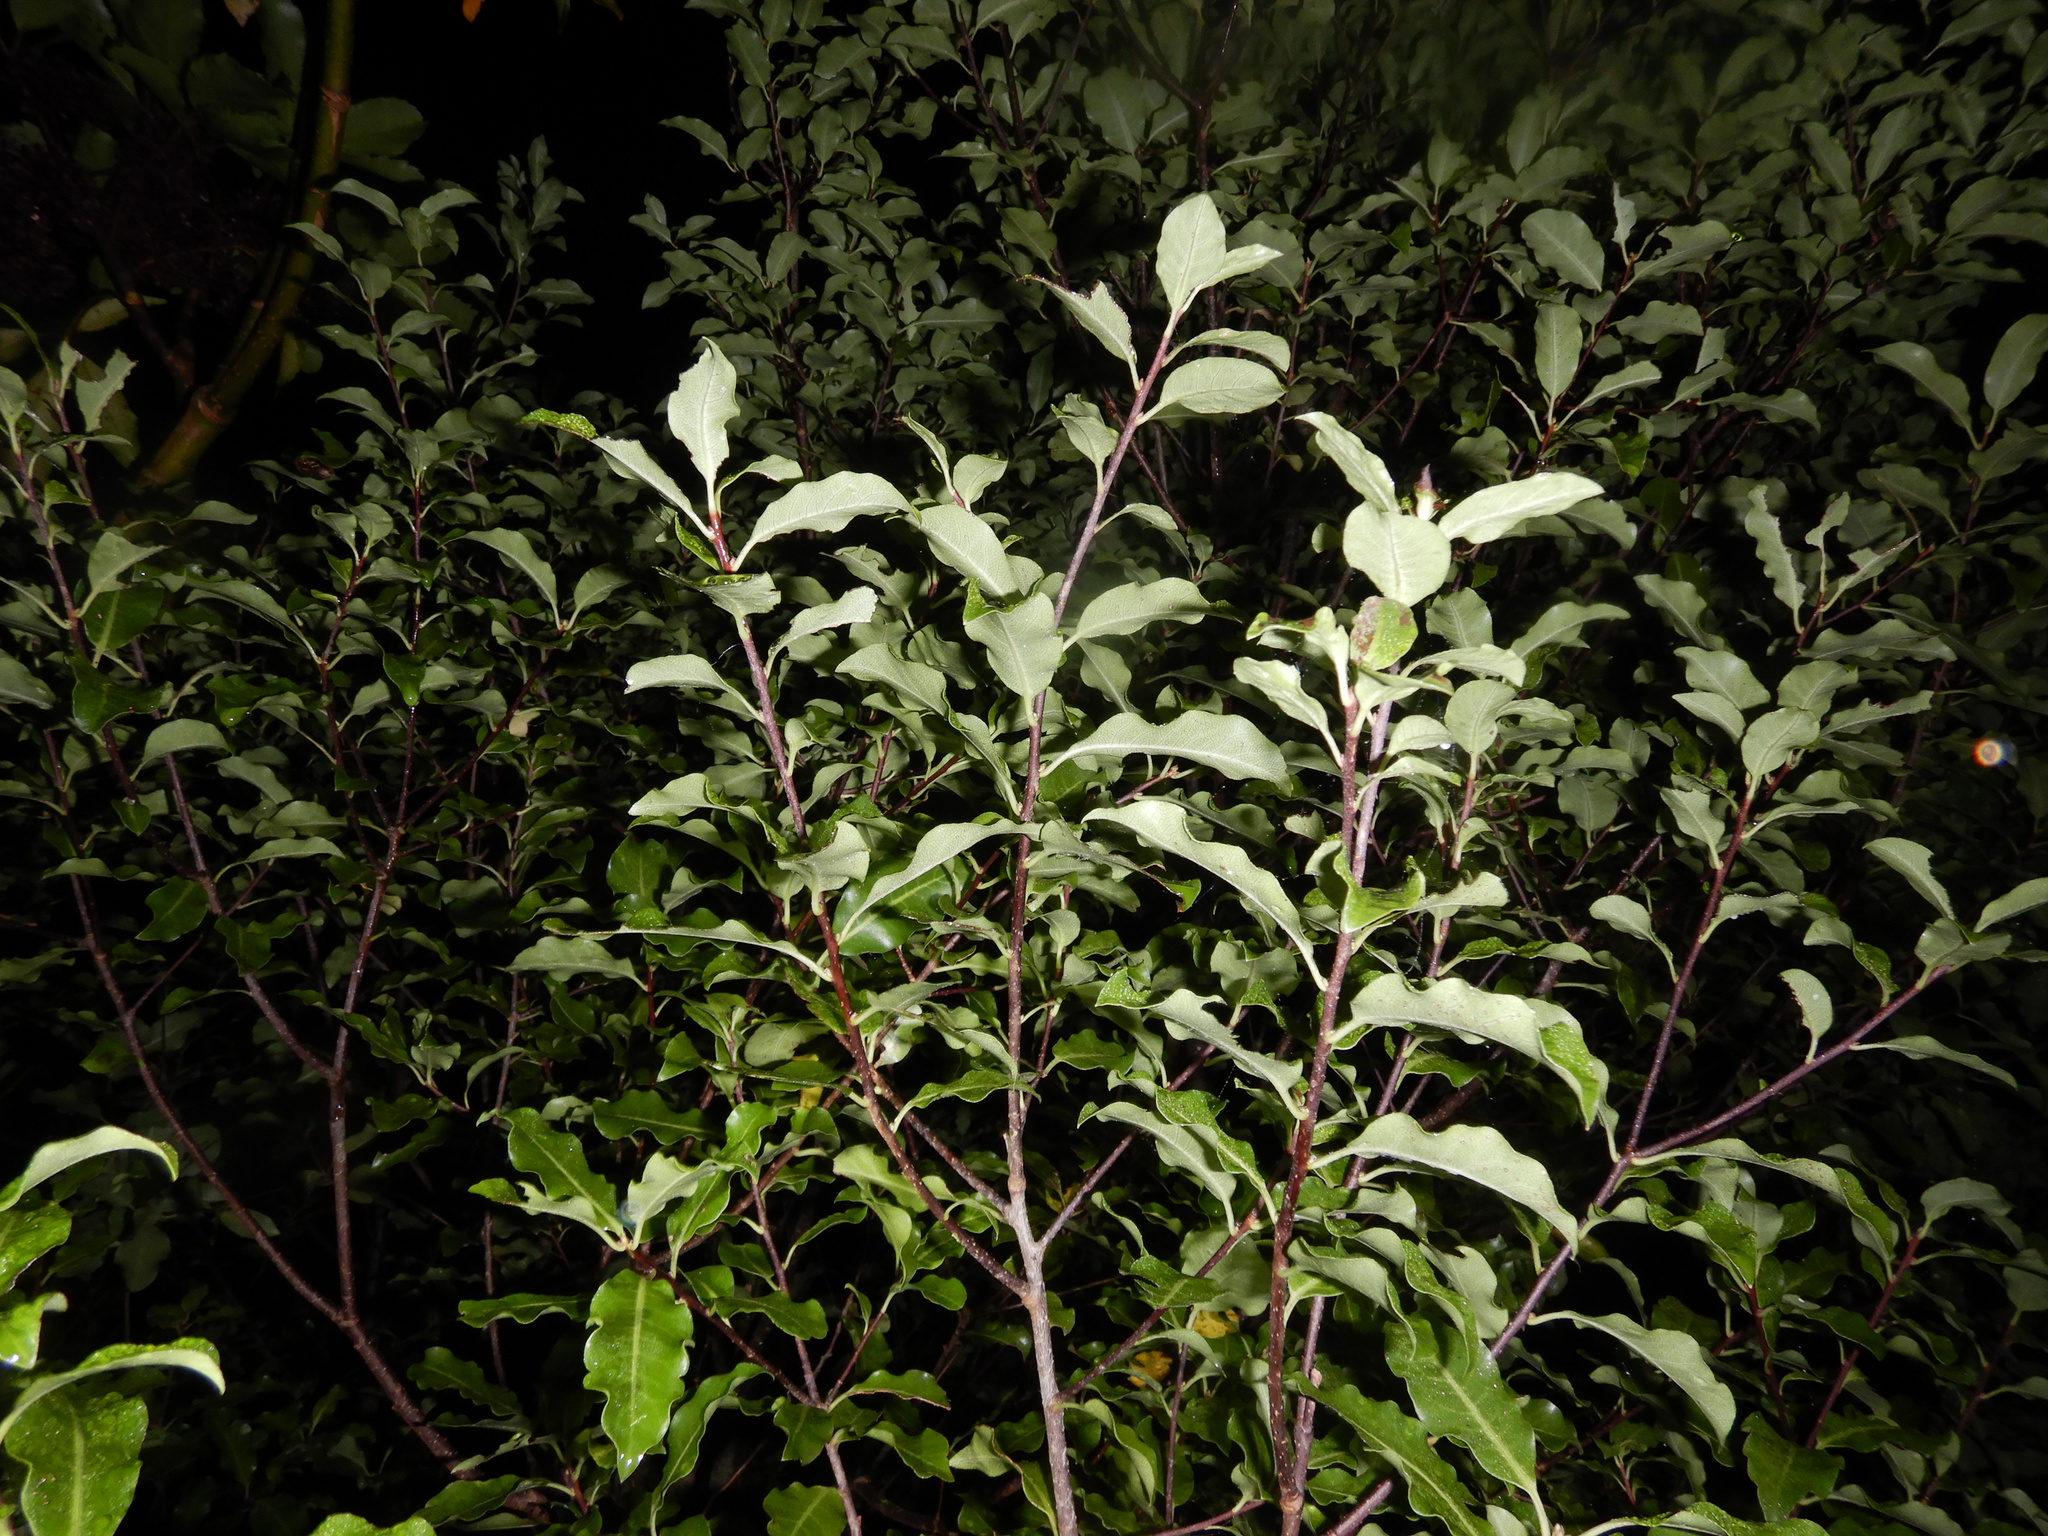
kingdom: Plantae
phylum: Tracheophyta
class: Magnoliopsida
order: Apiales
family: Pittosporaceae
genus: Pittosporum
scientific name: Pittosporum tenuifolium
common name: Kohuhu
